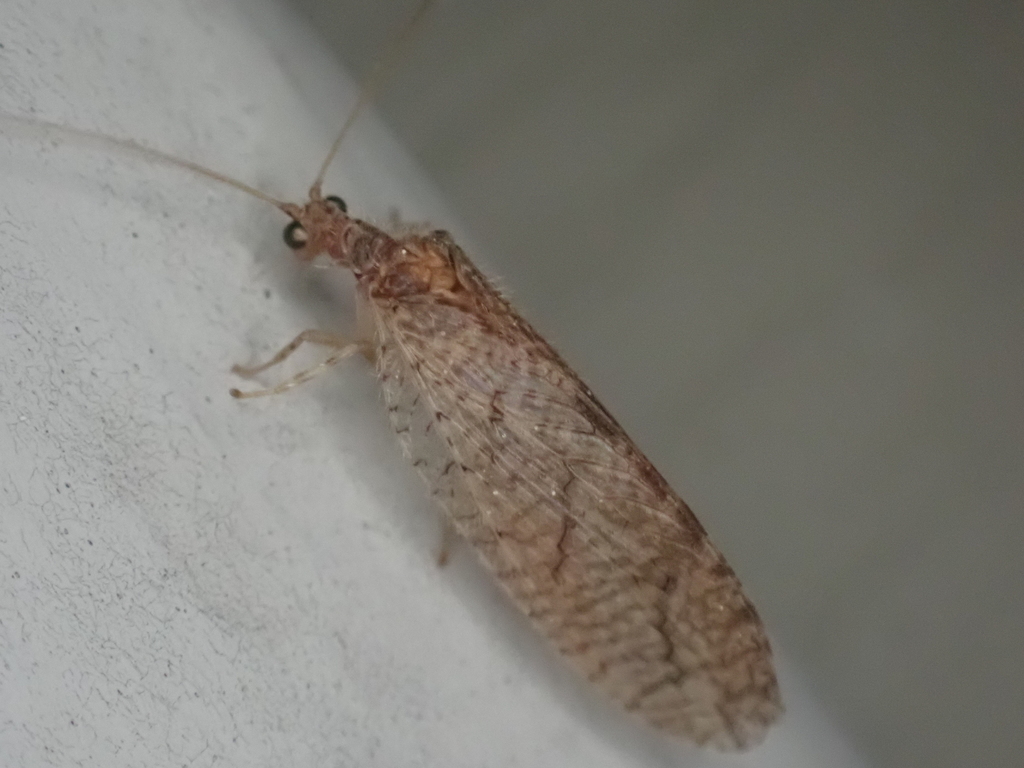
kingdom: Animalia
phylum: Arthropoda
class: Insecta
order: Neuroptera
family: Hemerobiidae
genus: Micromus
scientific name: Micromus posticus
